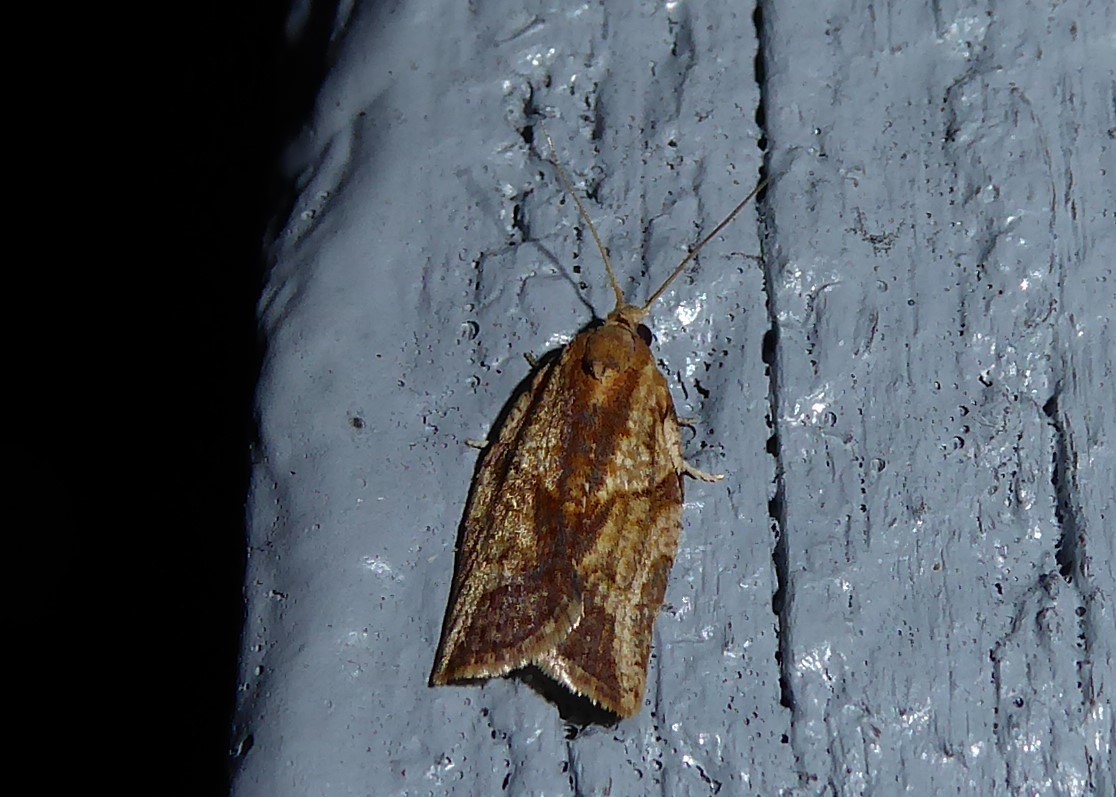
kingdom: Animalia
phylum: Arthropoda
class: Insecta
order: Lepidoptera
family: Tortricidae
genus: Epiphyas
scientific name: Epiphyas postvittana
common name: Light brown apple moth
